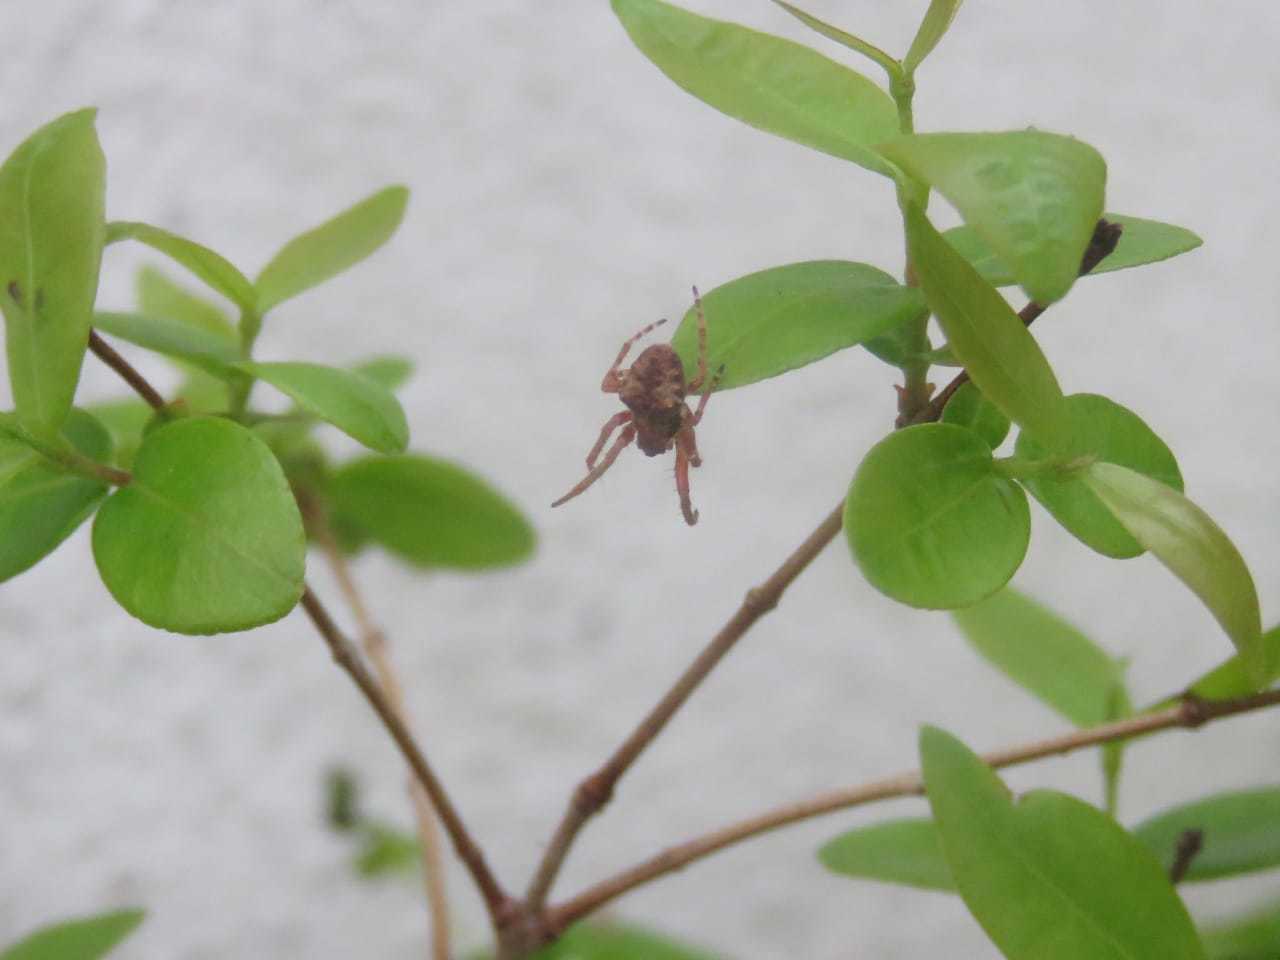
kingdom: Animalia
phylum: Arthropoda
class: Arachnida
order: Araneae
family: Araneidae
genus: Parawixia
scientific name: Parawixia audax
